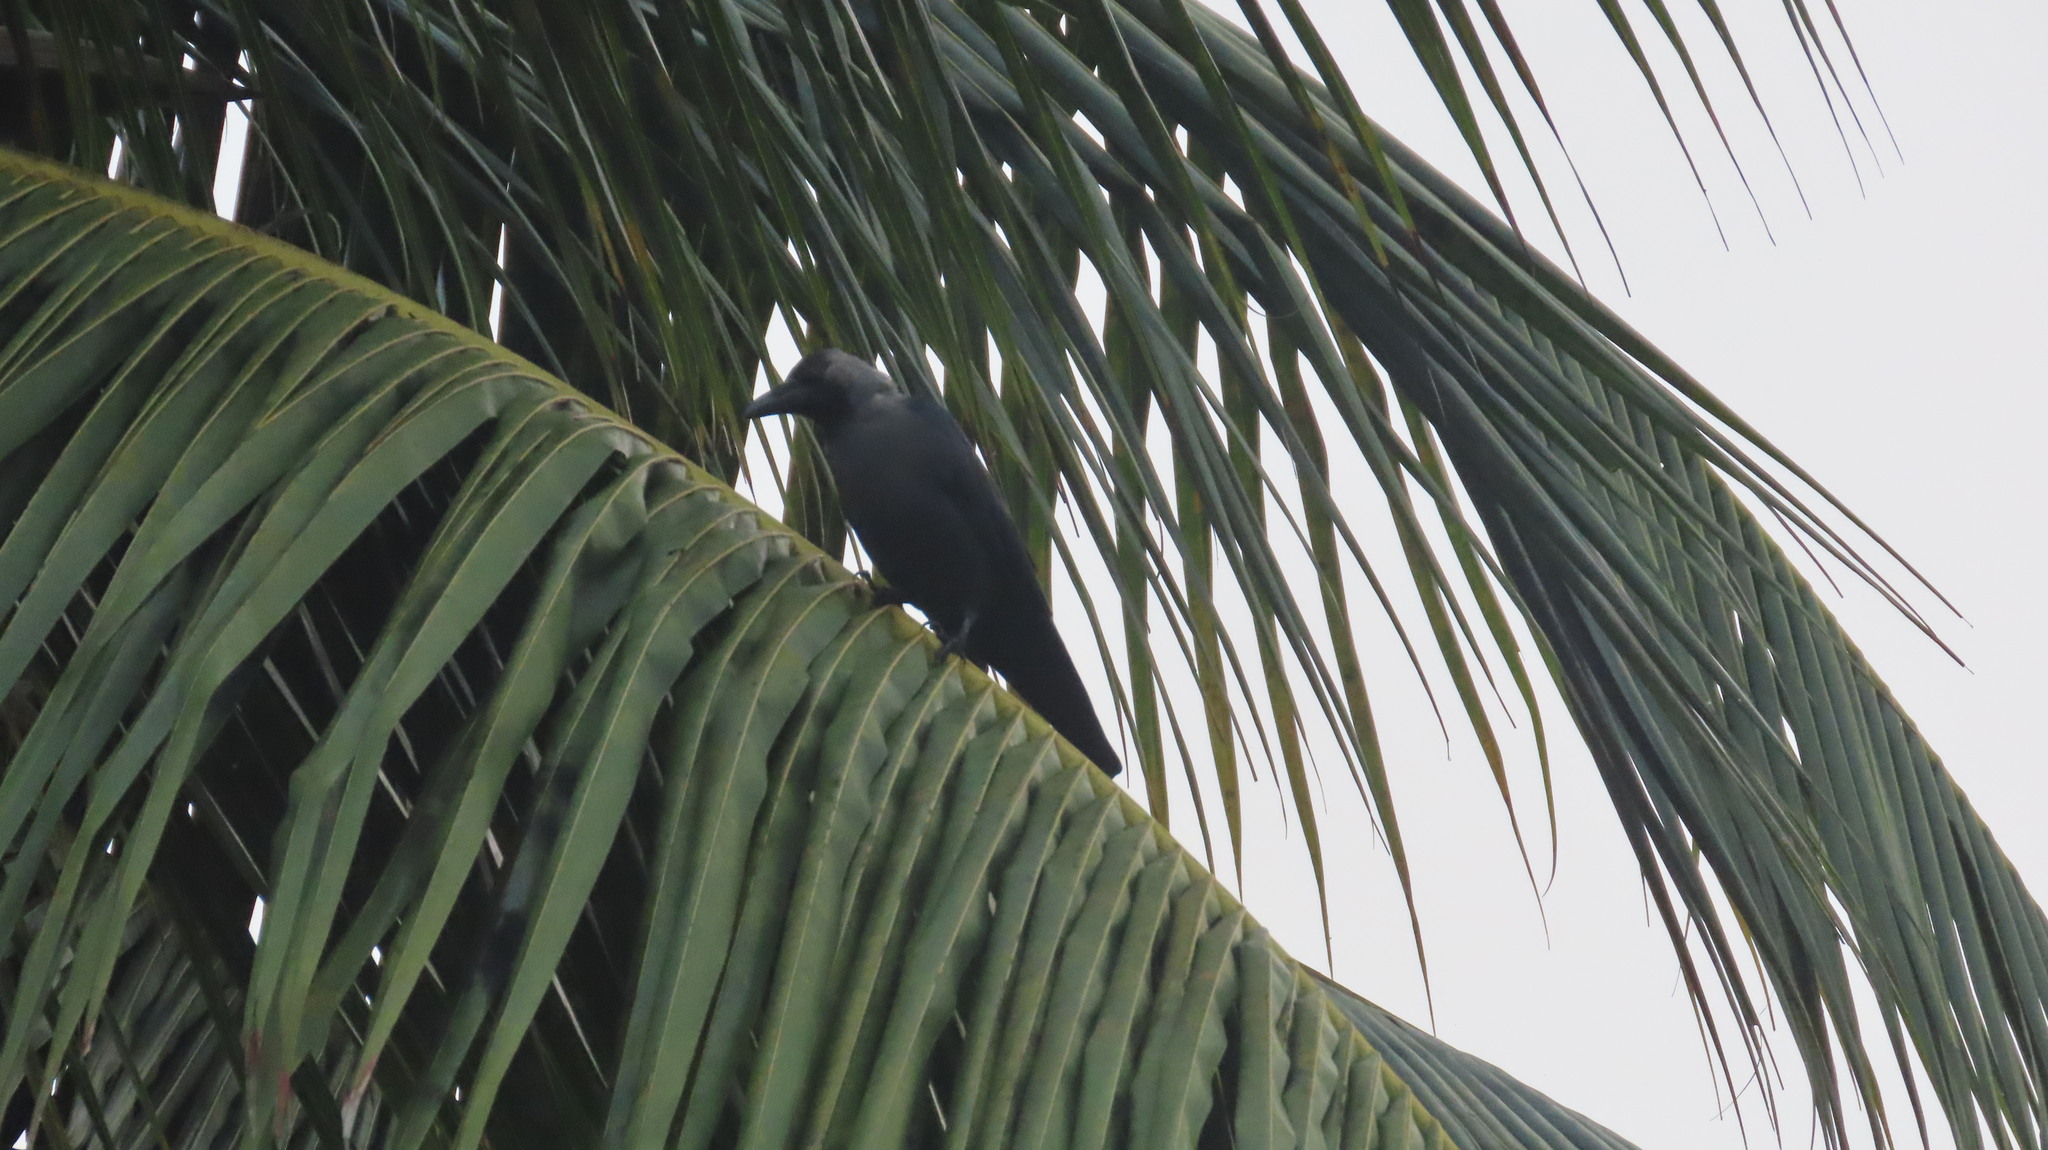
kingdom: Animalia
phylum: Chordata
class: Aves
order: Passeriformes
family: Corvidae
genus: Corvus
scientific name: Corvus splendens
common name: House crow
